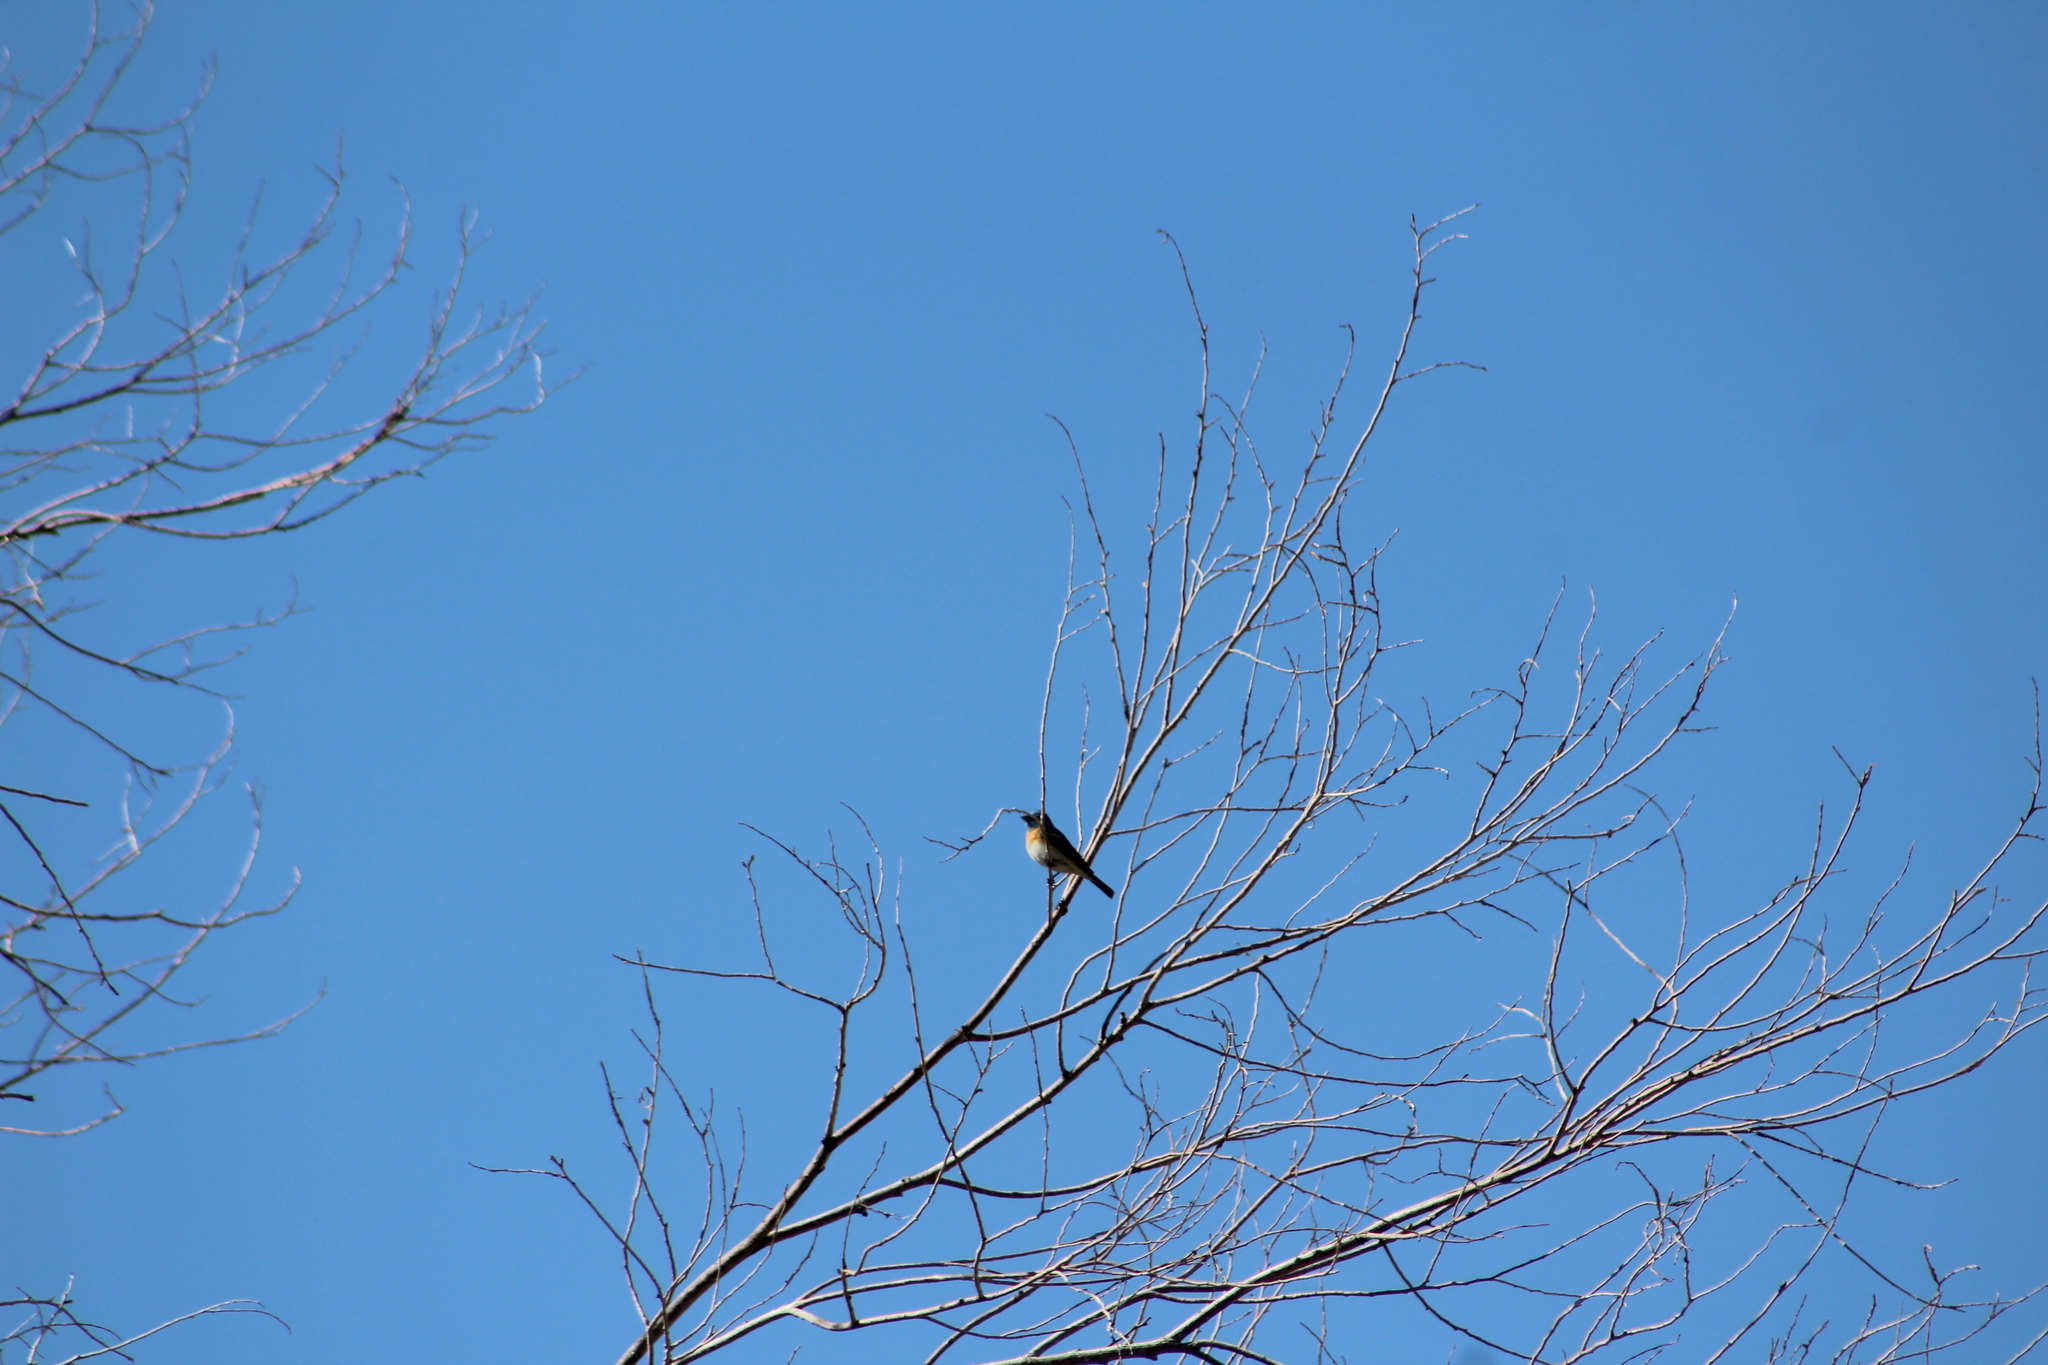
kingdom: Animalia
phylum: Chordata
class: Aves
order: Passeriformes
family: Cardinalidae
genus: Passerina
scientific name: Passerina amoena
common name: Lazuli bunting
